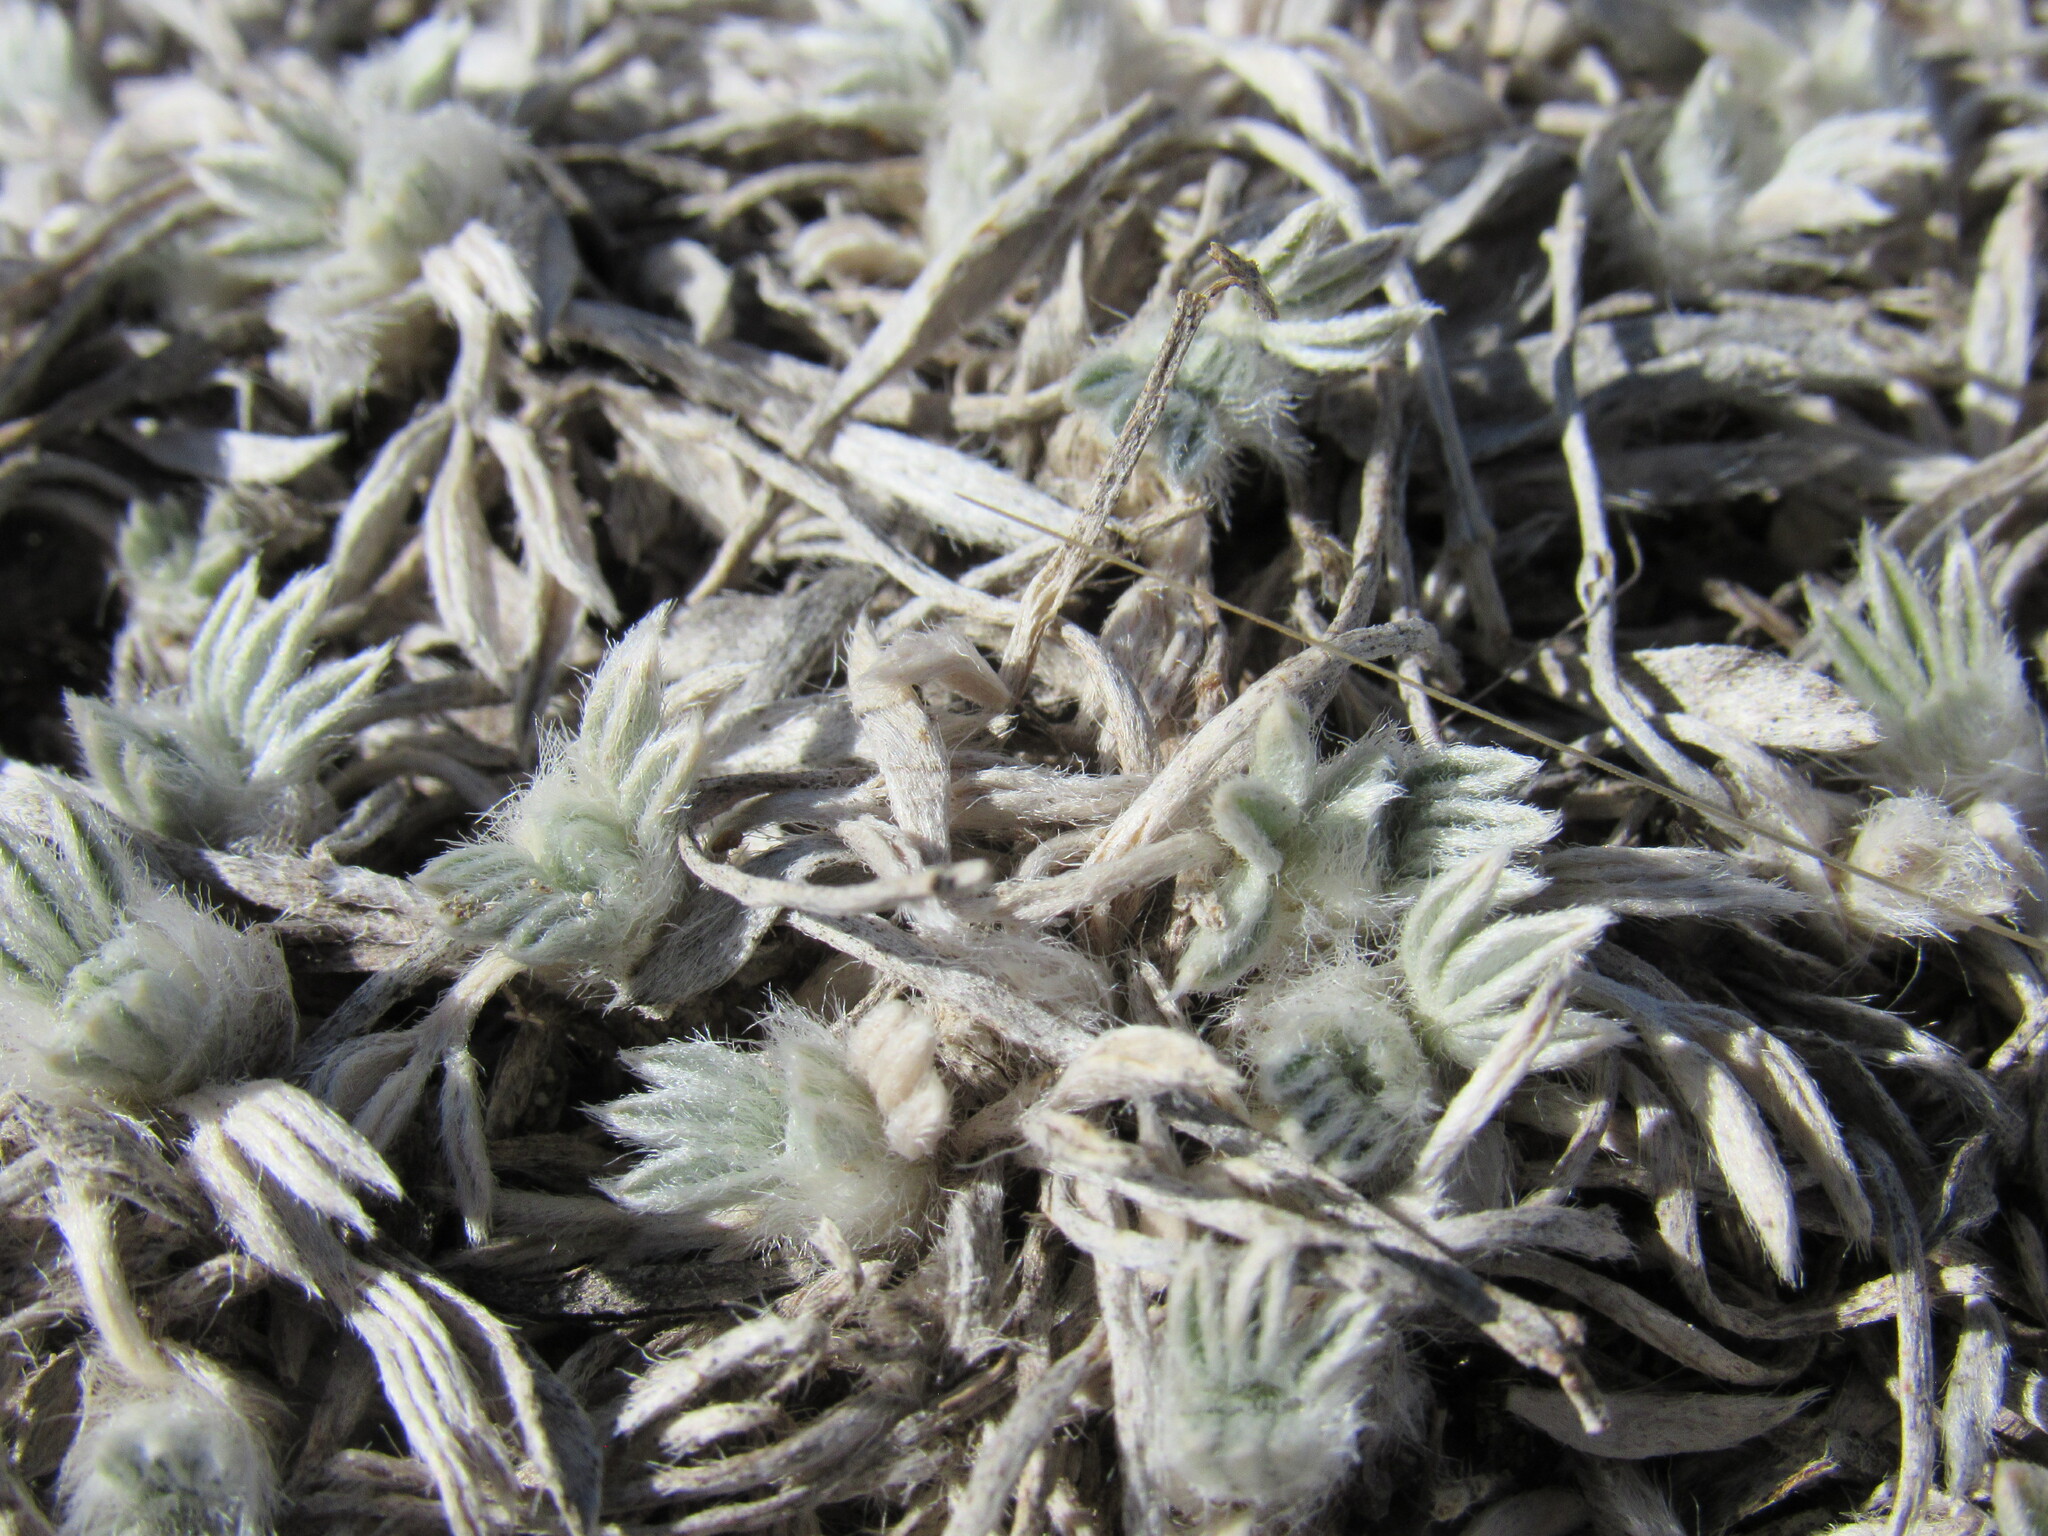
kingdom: Plantae
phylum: Tracheophyta
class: Magnoliopsida
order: Fabales
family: Fabaceae
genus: Astragalus
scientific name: Astragalus tridactylicus
